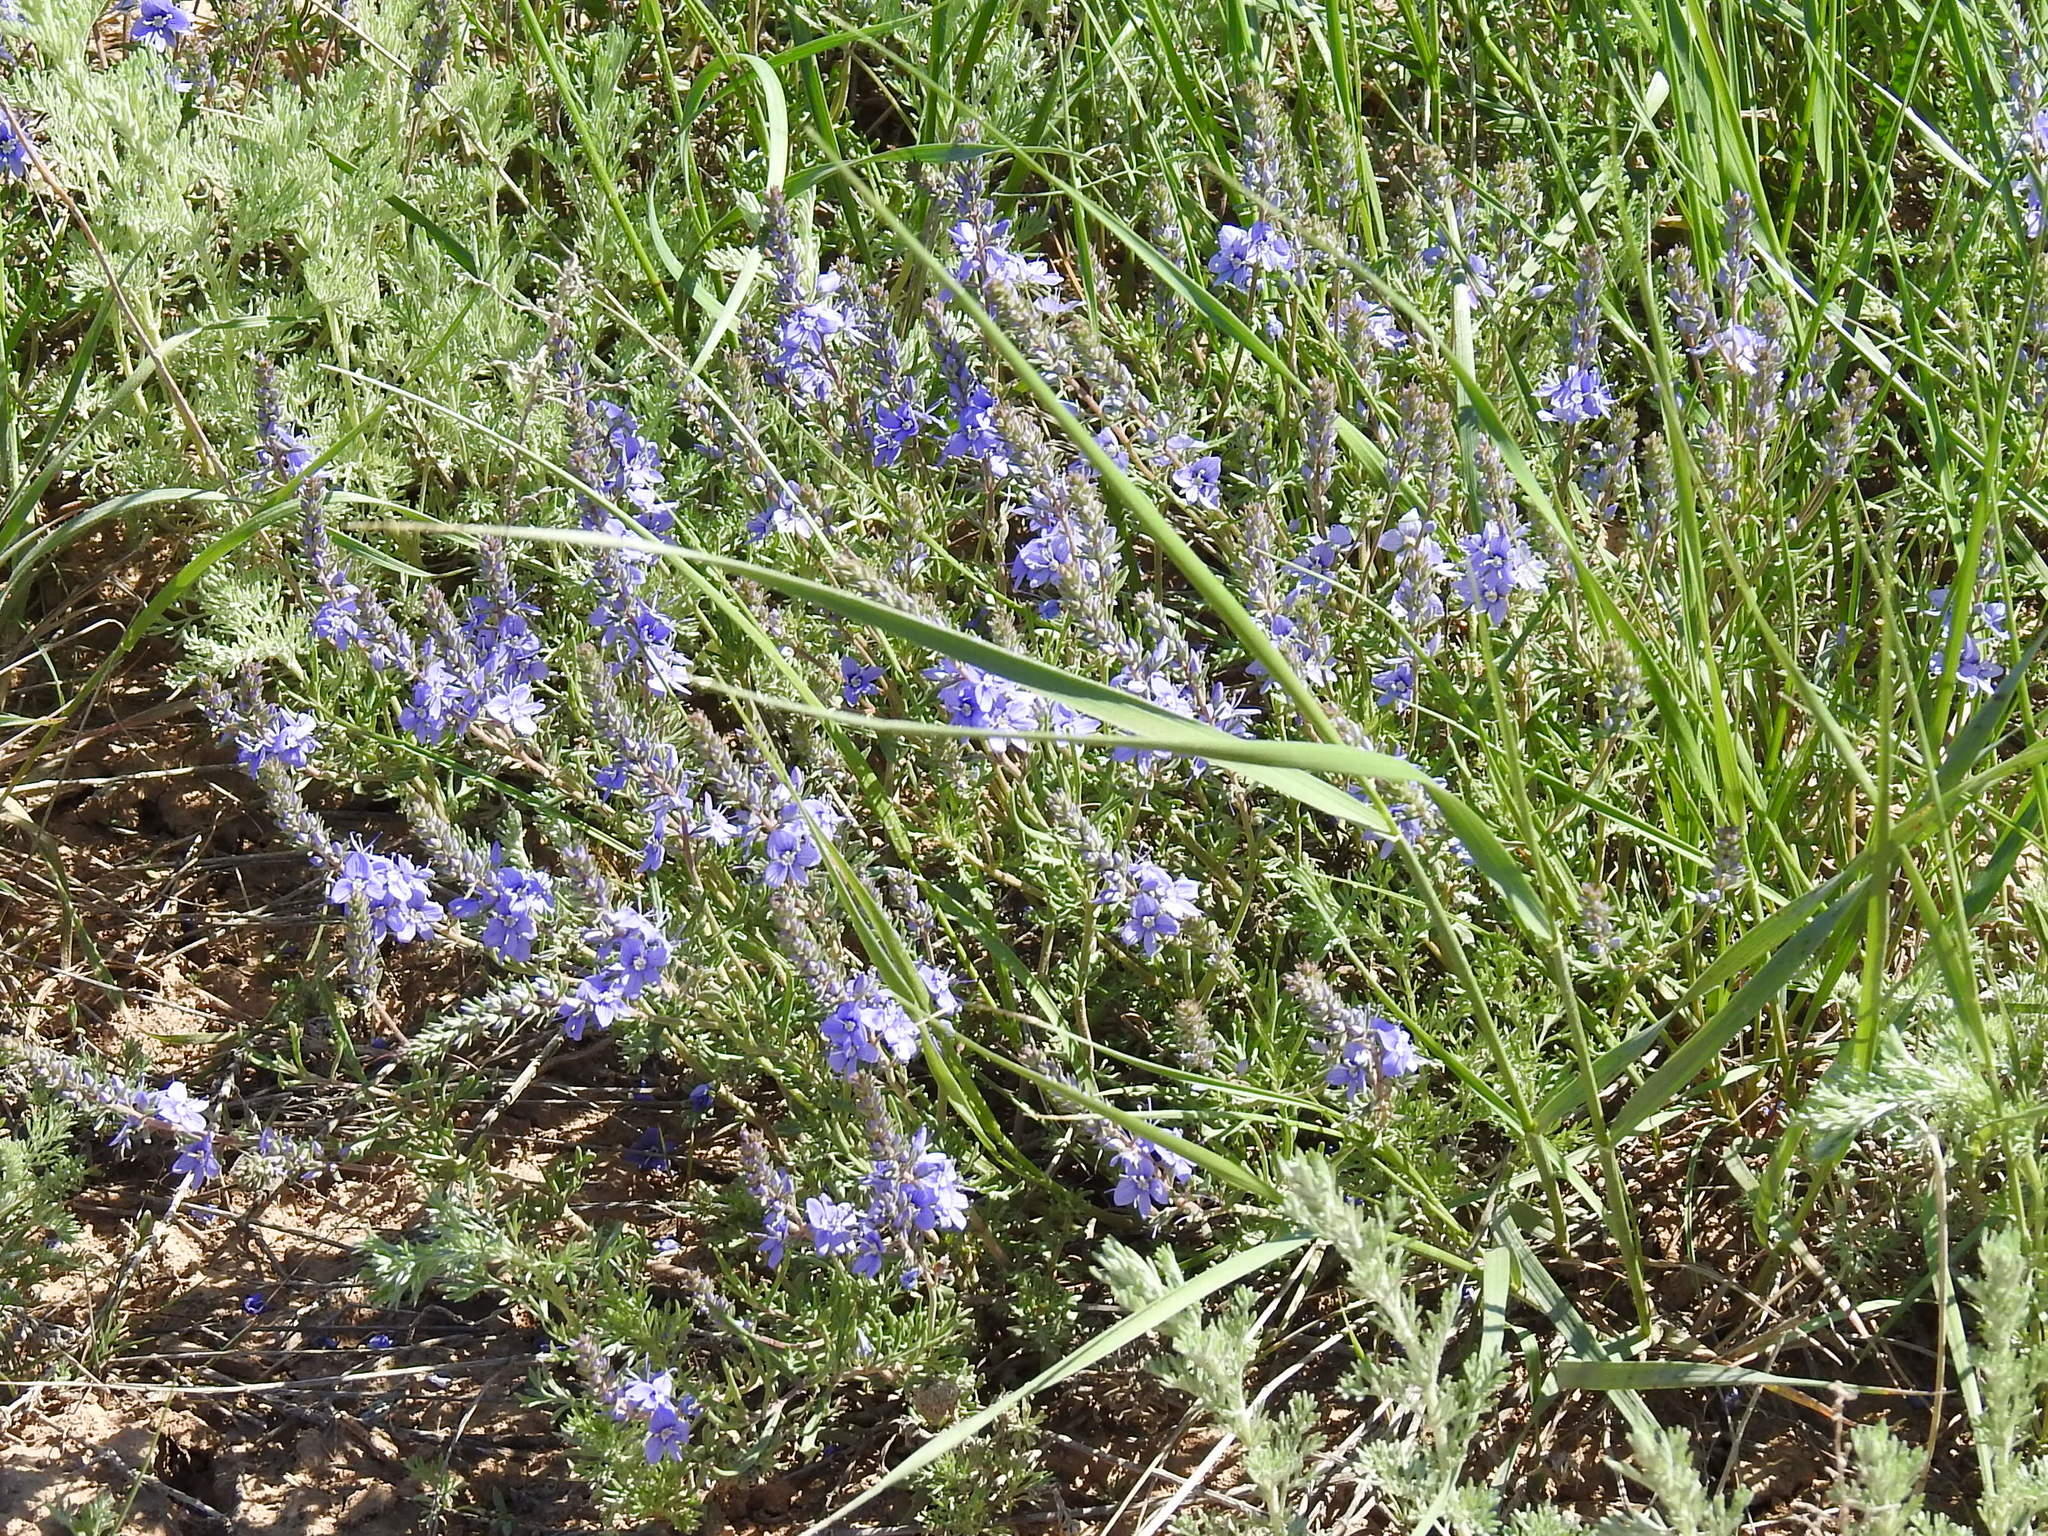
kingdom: Plantae
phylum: Tracheophyta
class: Magnoliopsida
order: Lamiales
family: Plantaginaceae
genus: Veronica
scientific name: Veronica multifida
